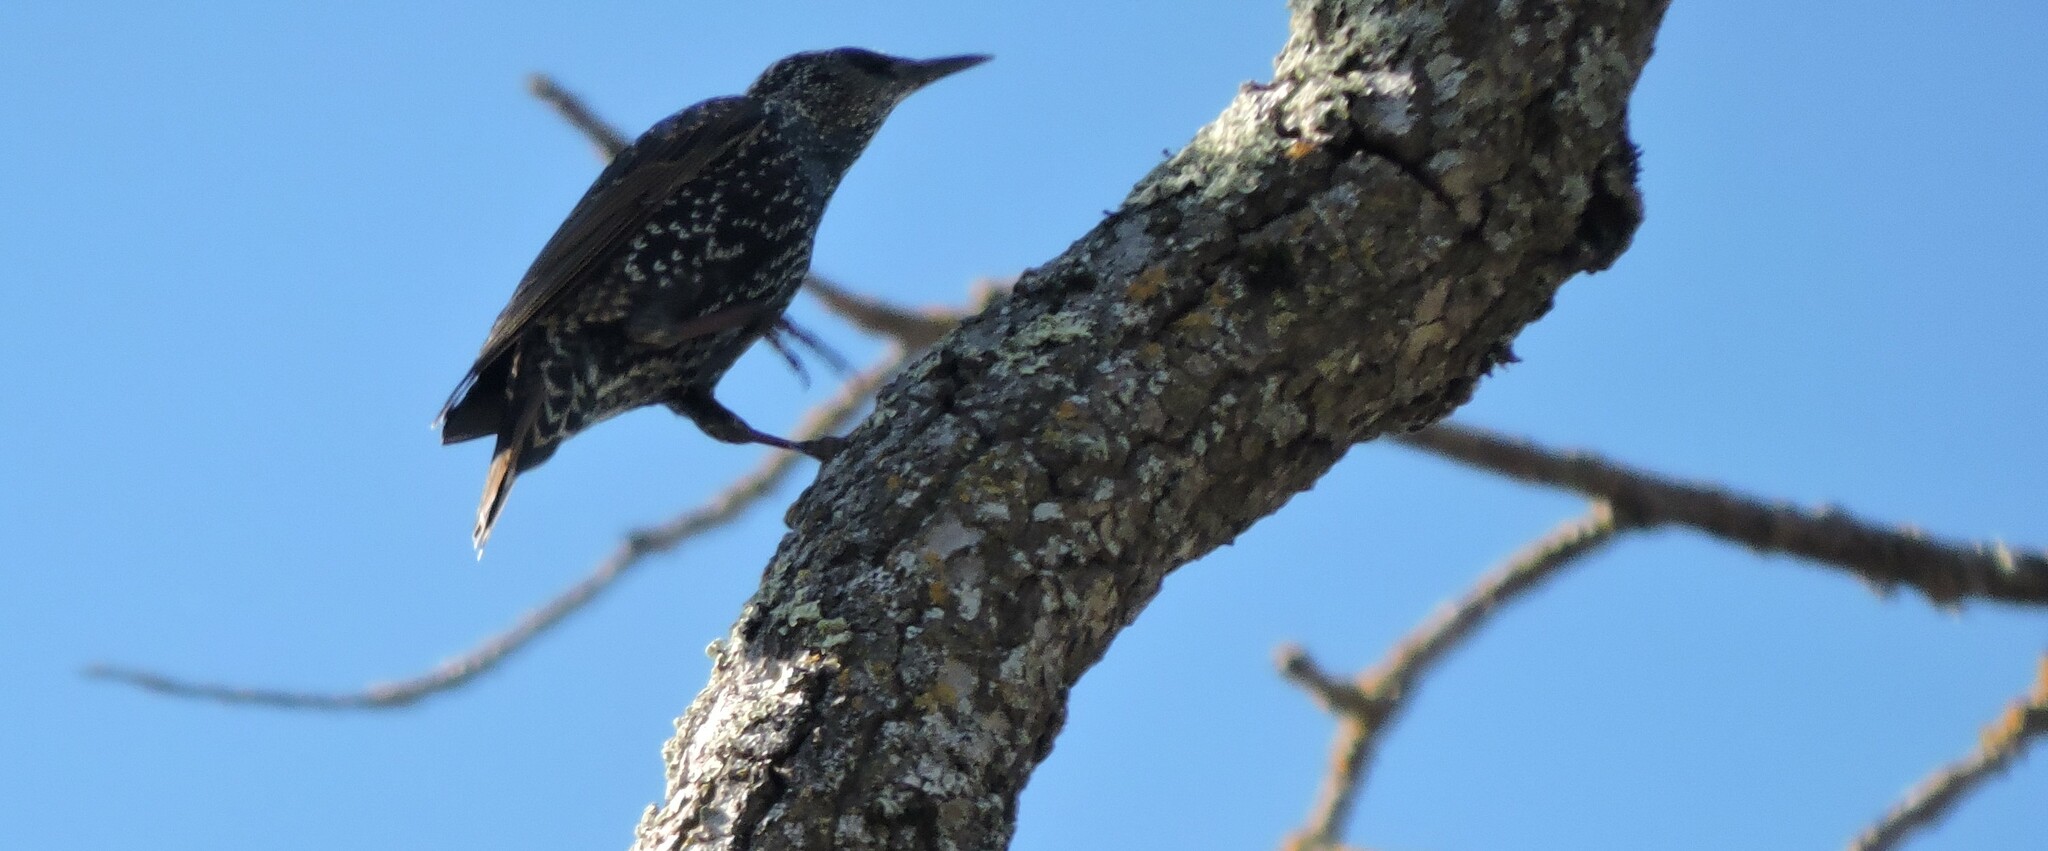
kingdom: Animalia
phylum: Chordata
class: Aves
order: Passeriformes
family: Sturnidae
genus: Sturnus
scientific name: Sturnus vulgaris
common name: Common starling
